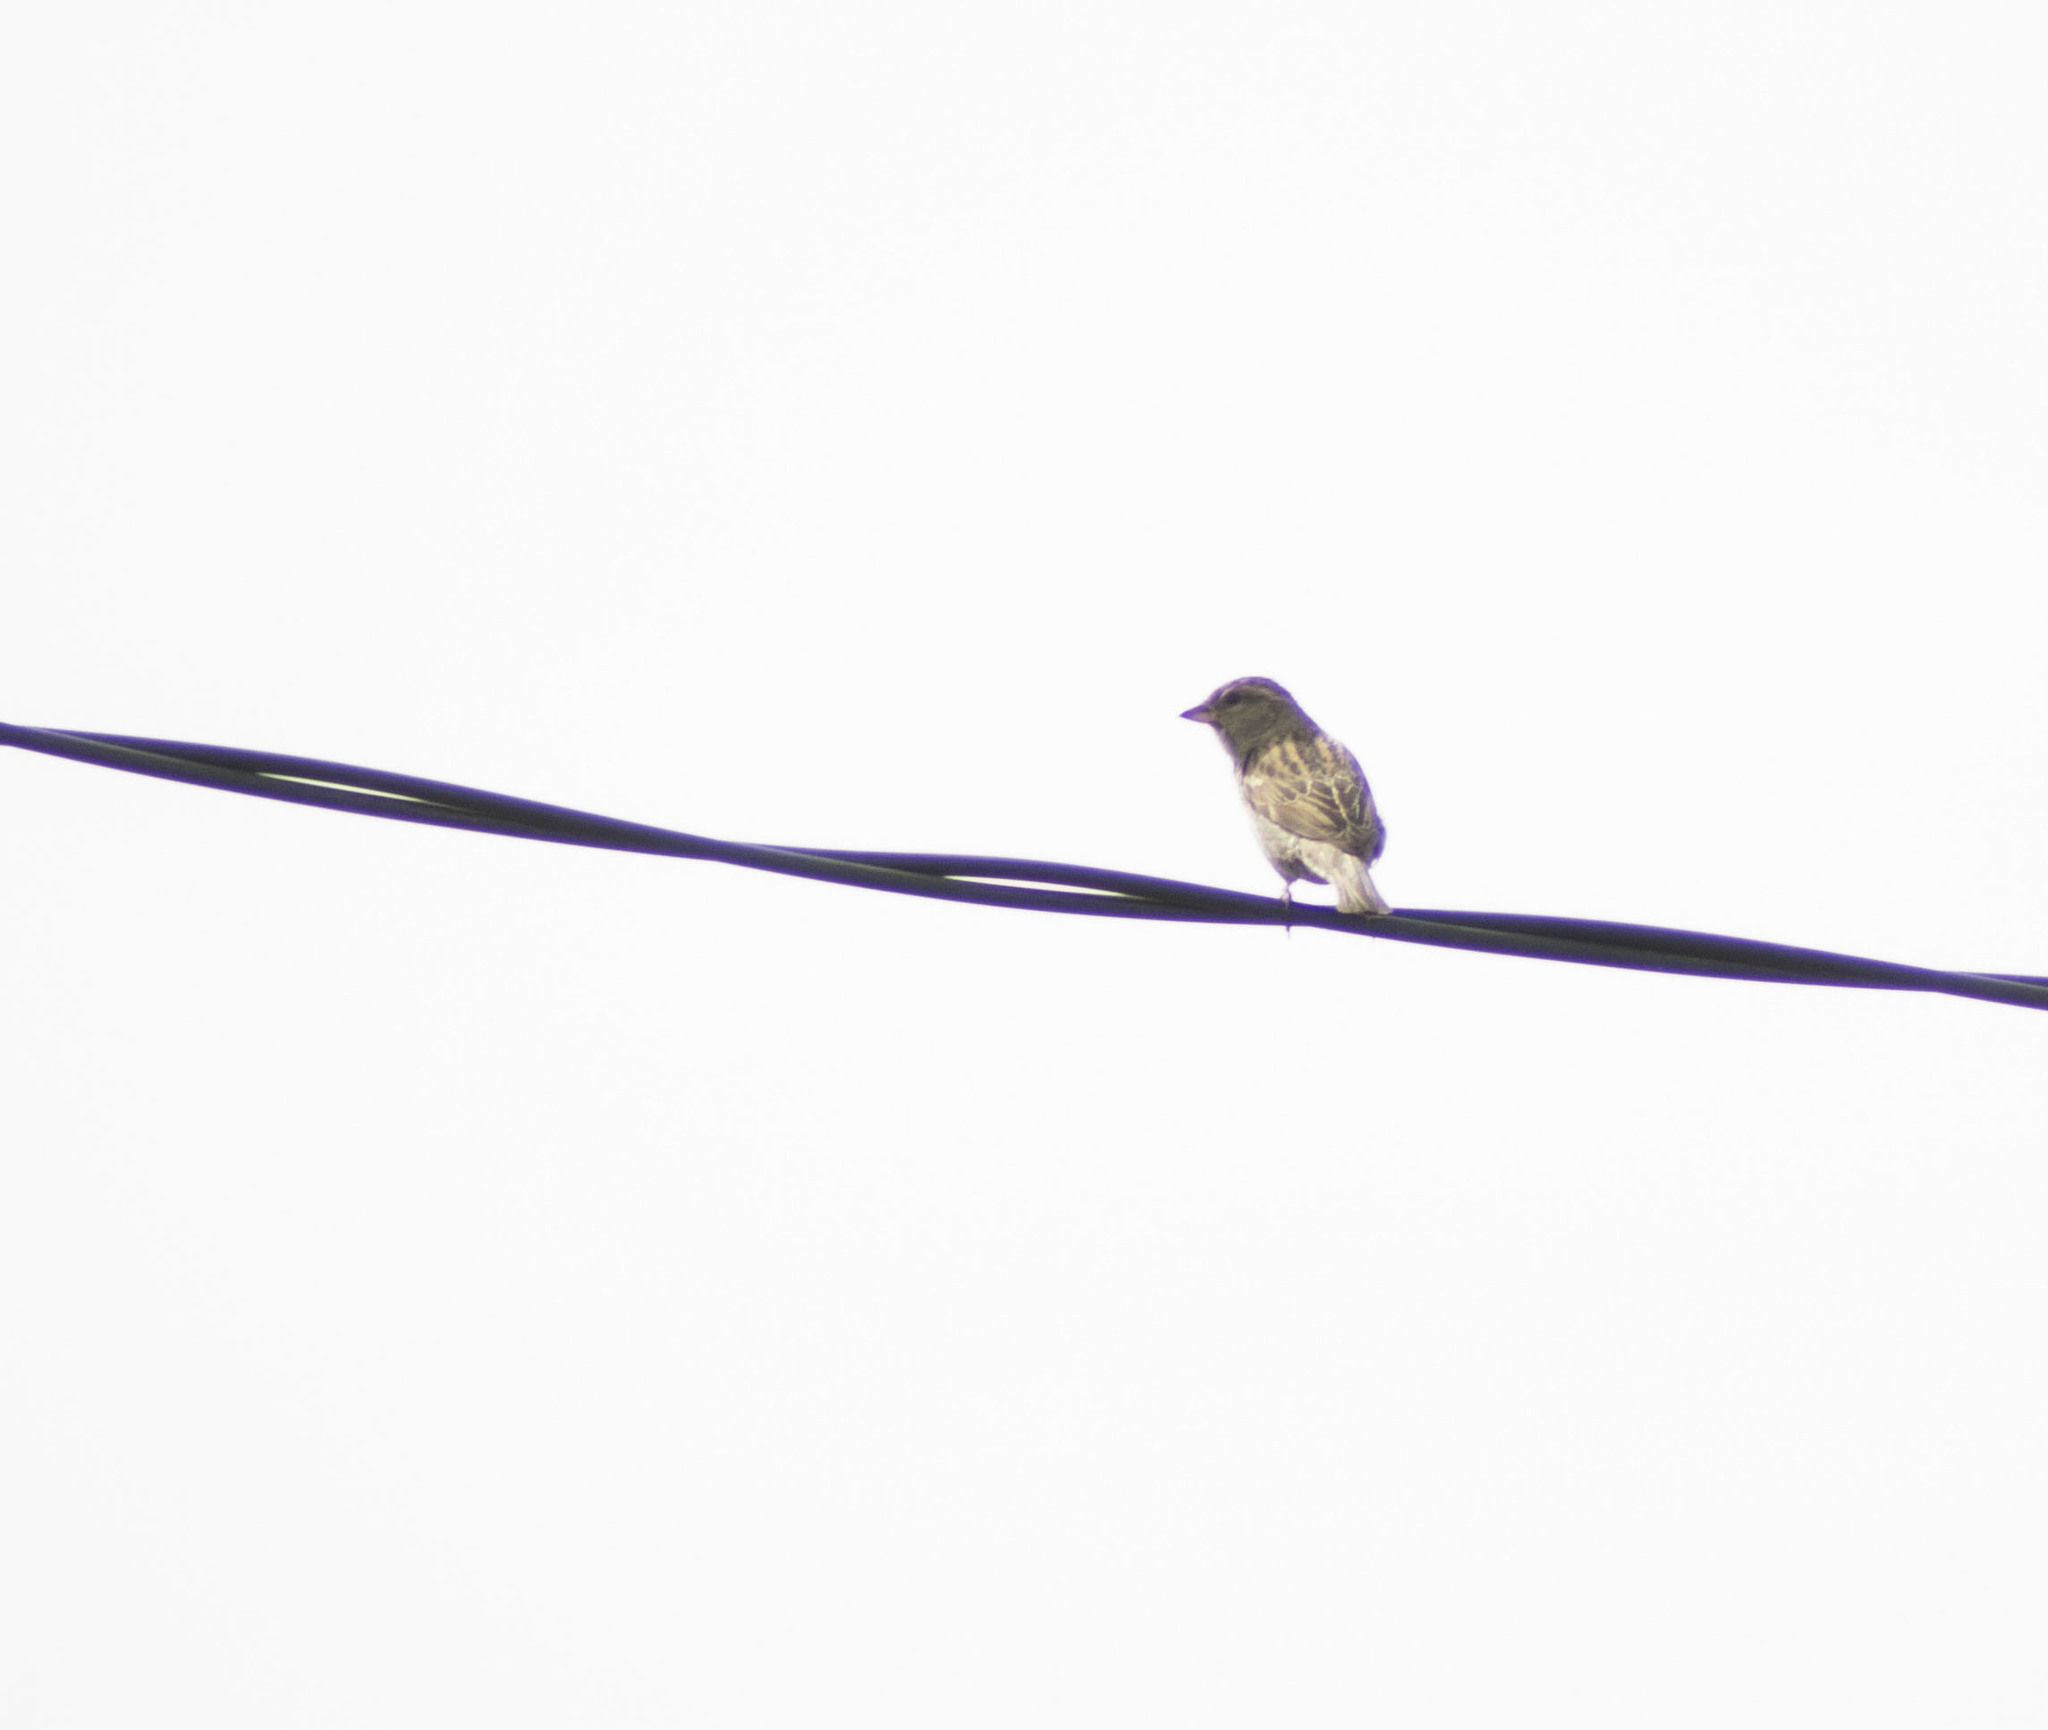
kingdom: Animalia
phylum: Chordata
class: Aves
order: Passeriformes
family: Passeridae
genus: Passer
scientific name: Passer domesticus
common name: House sparrow
